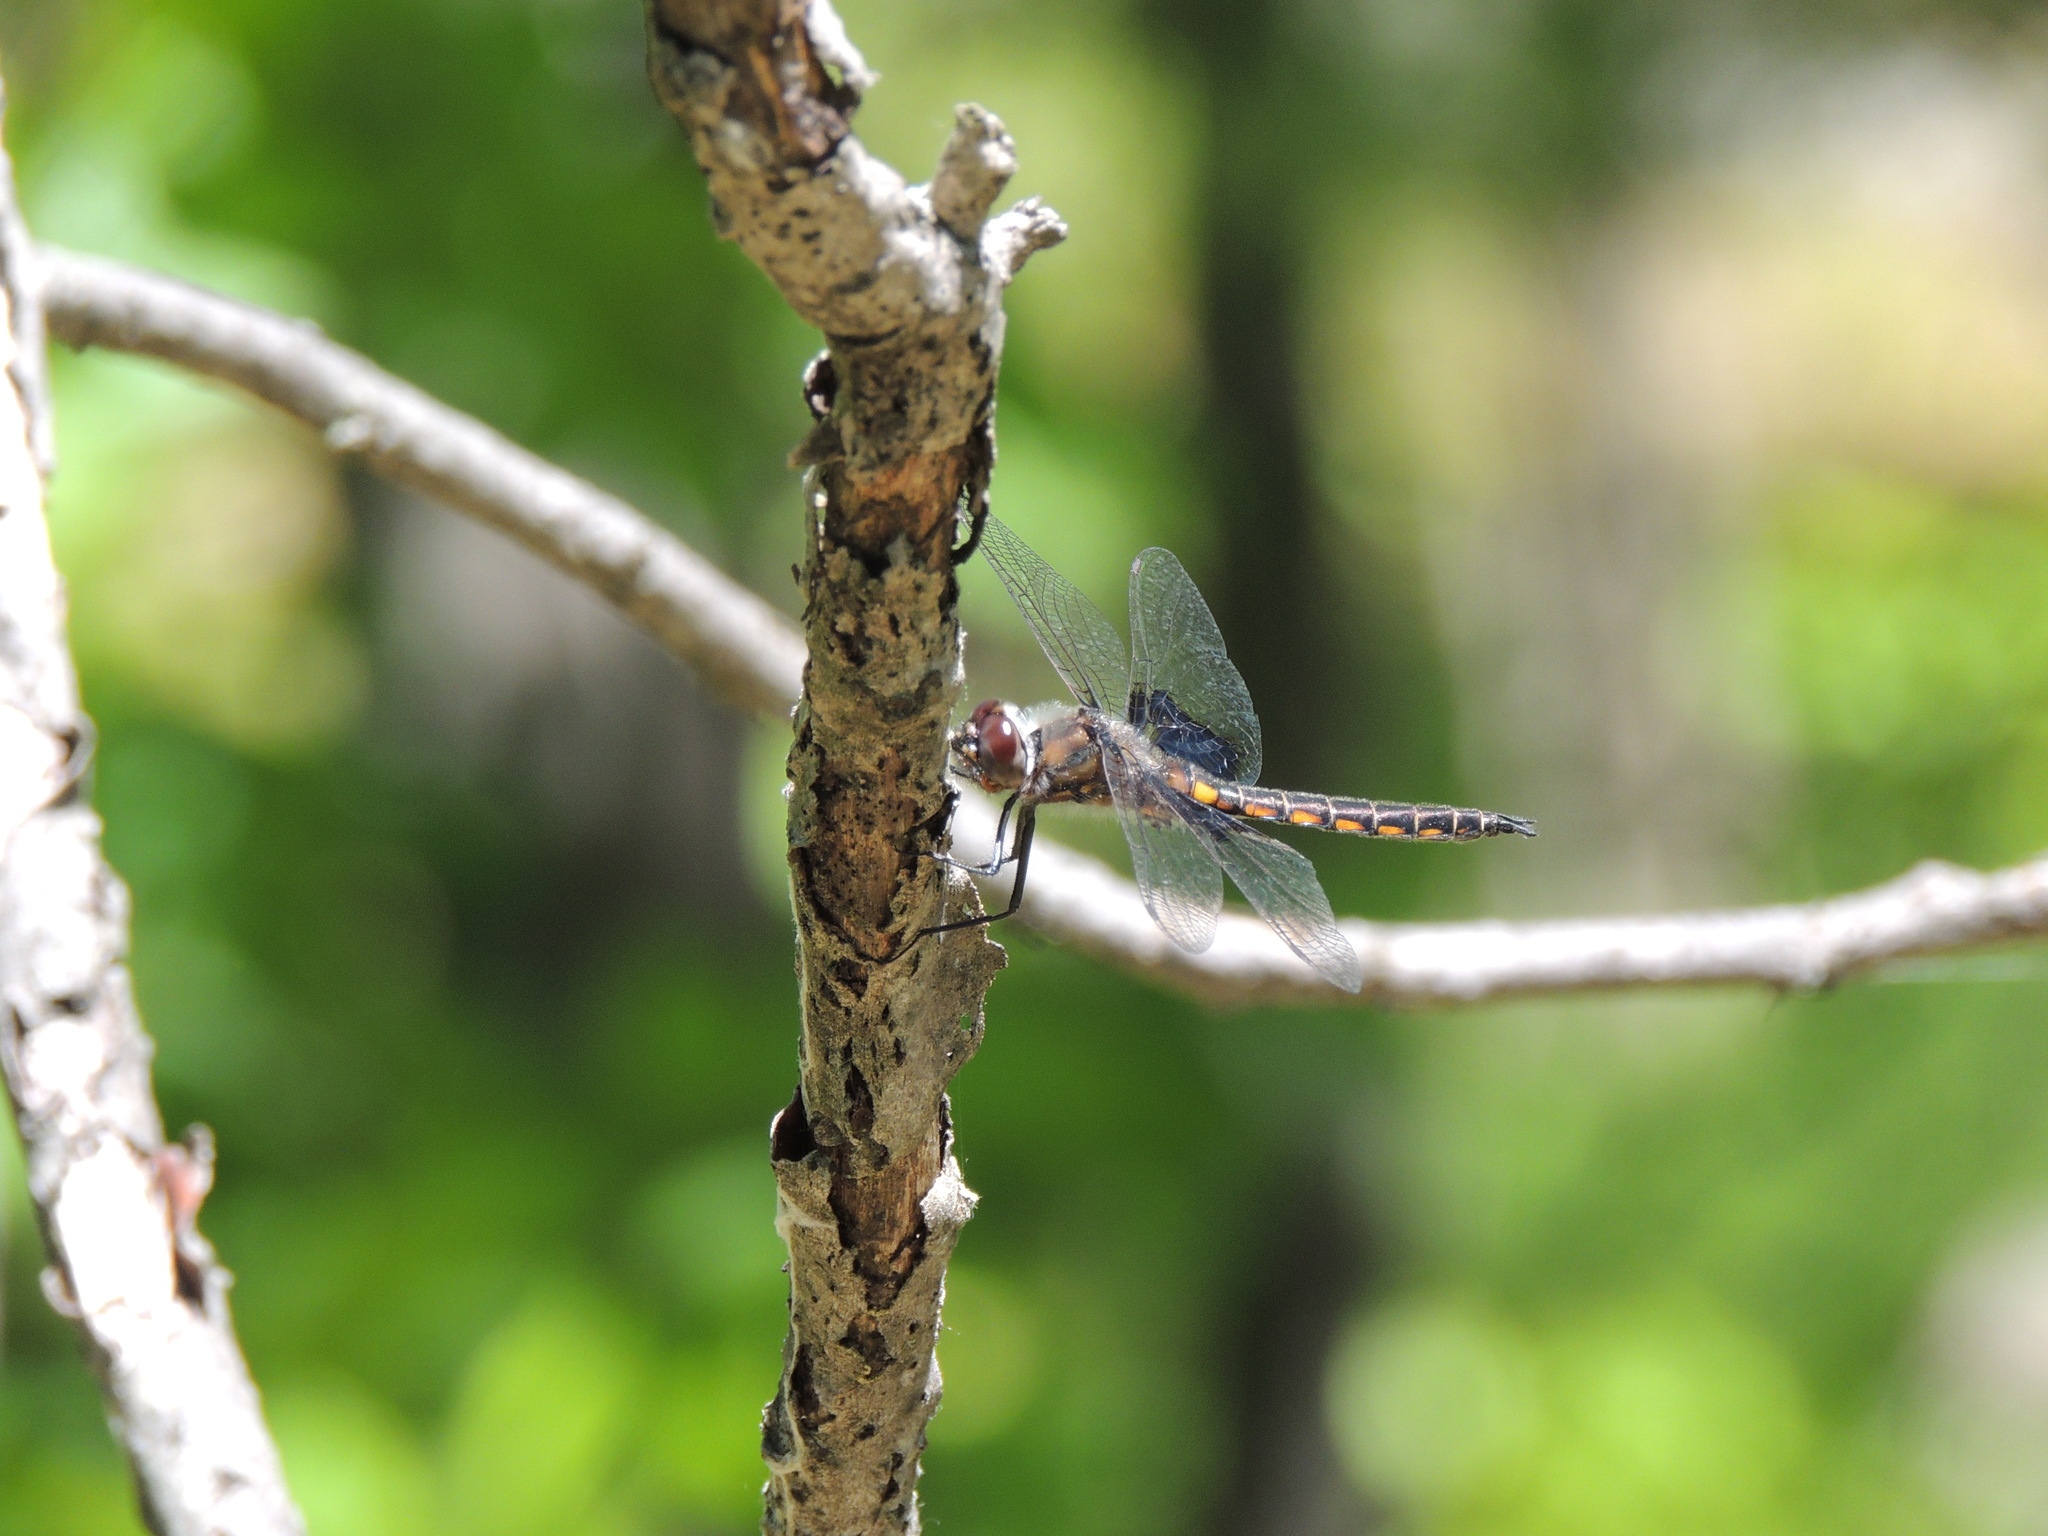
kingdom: Animalia
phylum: Arthropoda
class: Insecta
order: Odonata
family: Corduliidae
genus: Epitheca
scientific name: Epitheca cynosura
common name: Common baskettail
